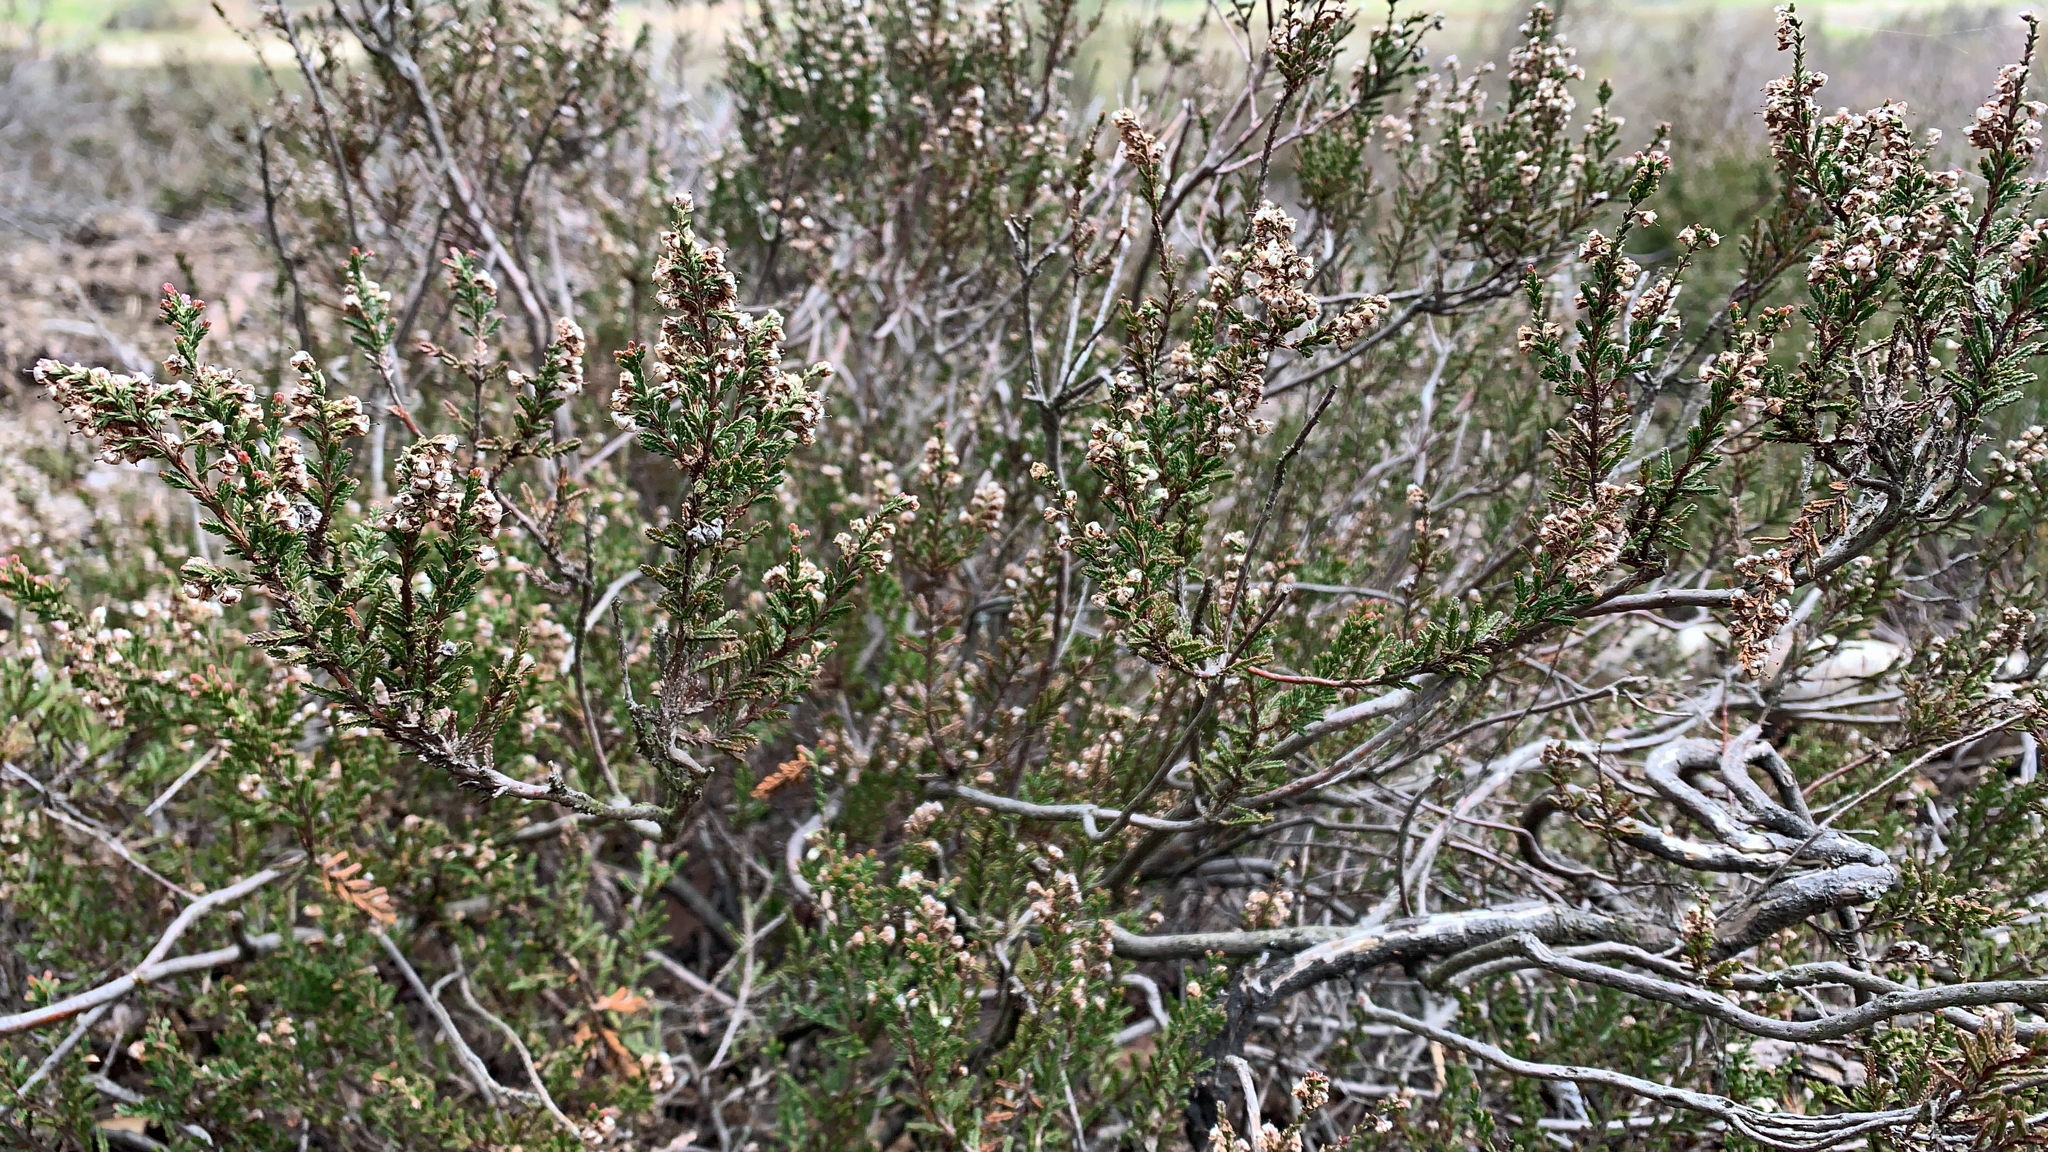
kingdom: Plantae
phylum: Tracheophyta
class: Magnoliopsida
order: Ericales
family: Ericaceae
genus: Calluna
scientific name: Calluna vulgaris
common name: Heather
